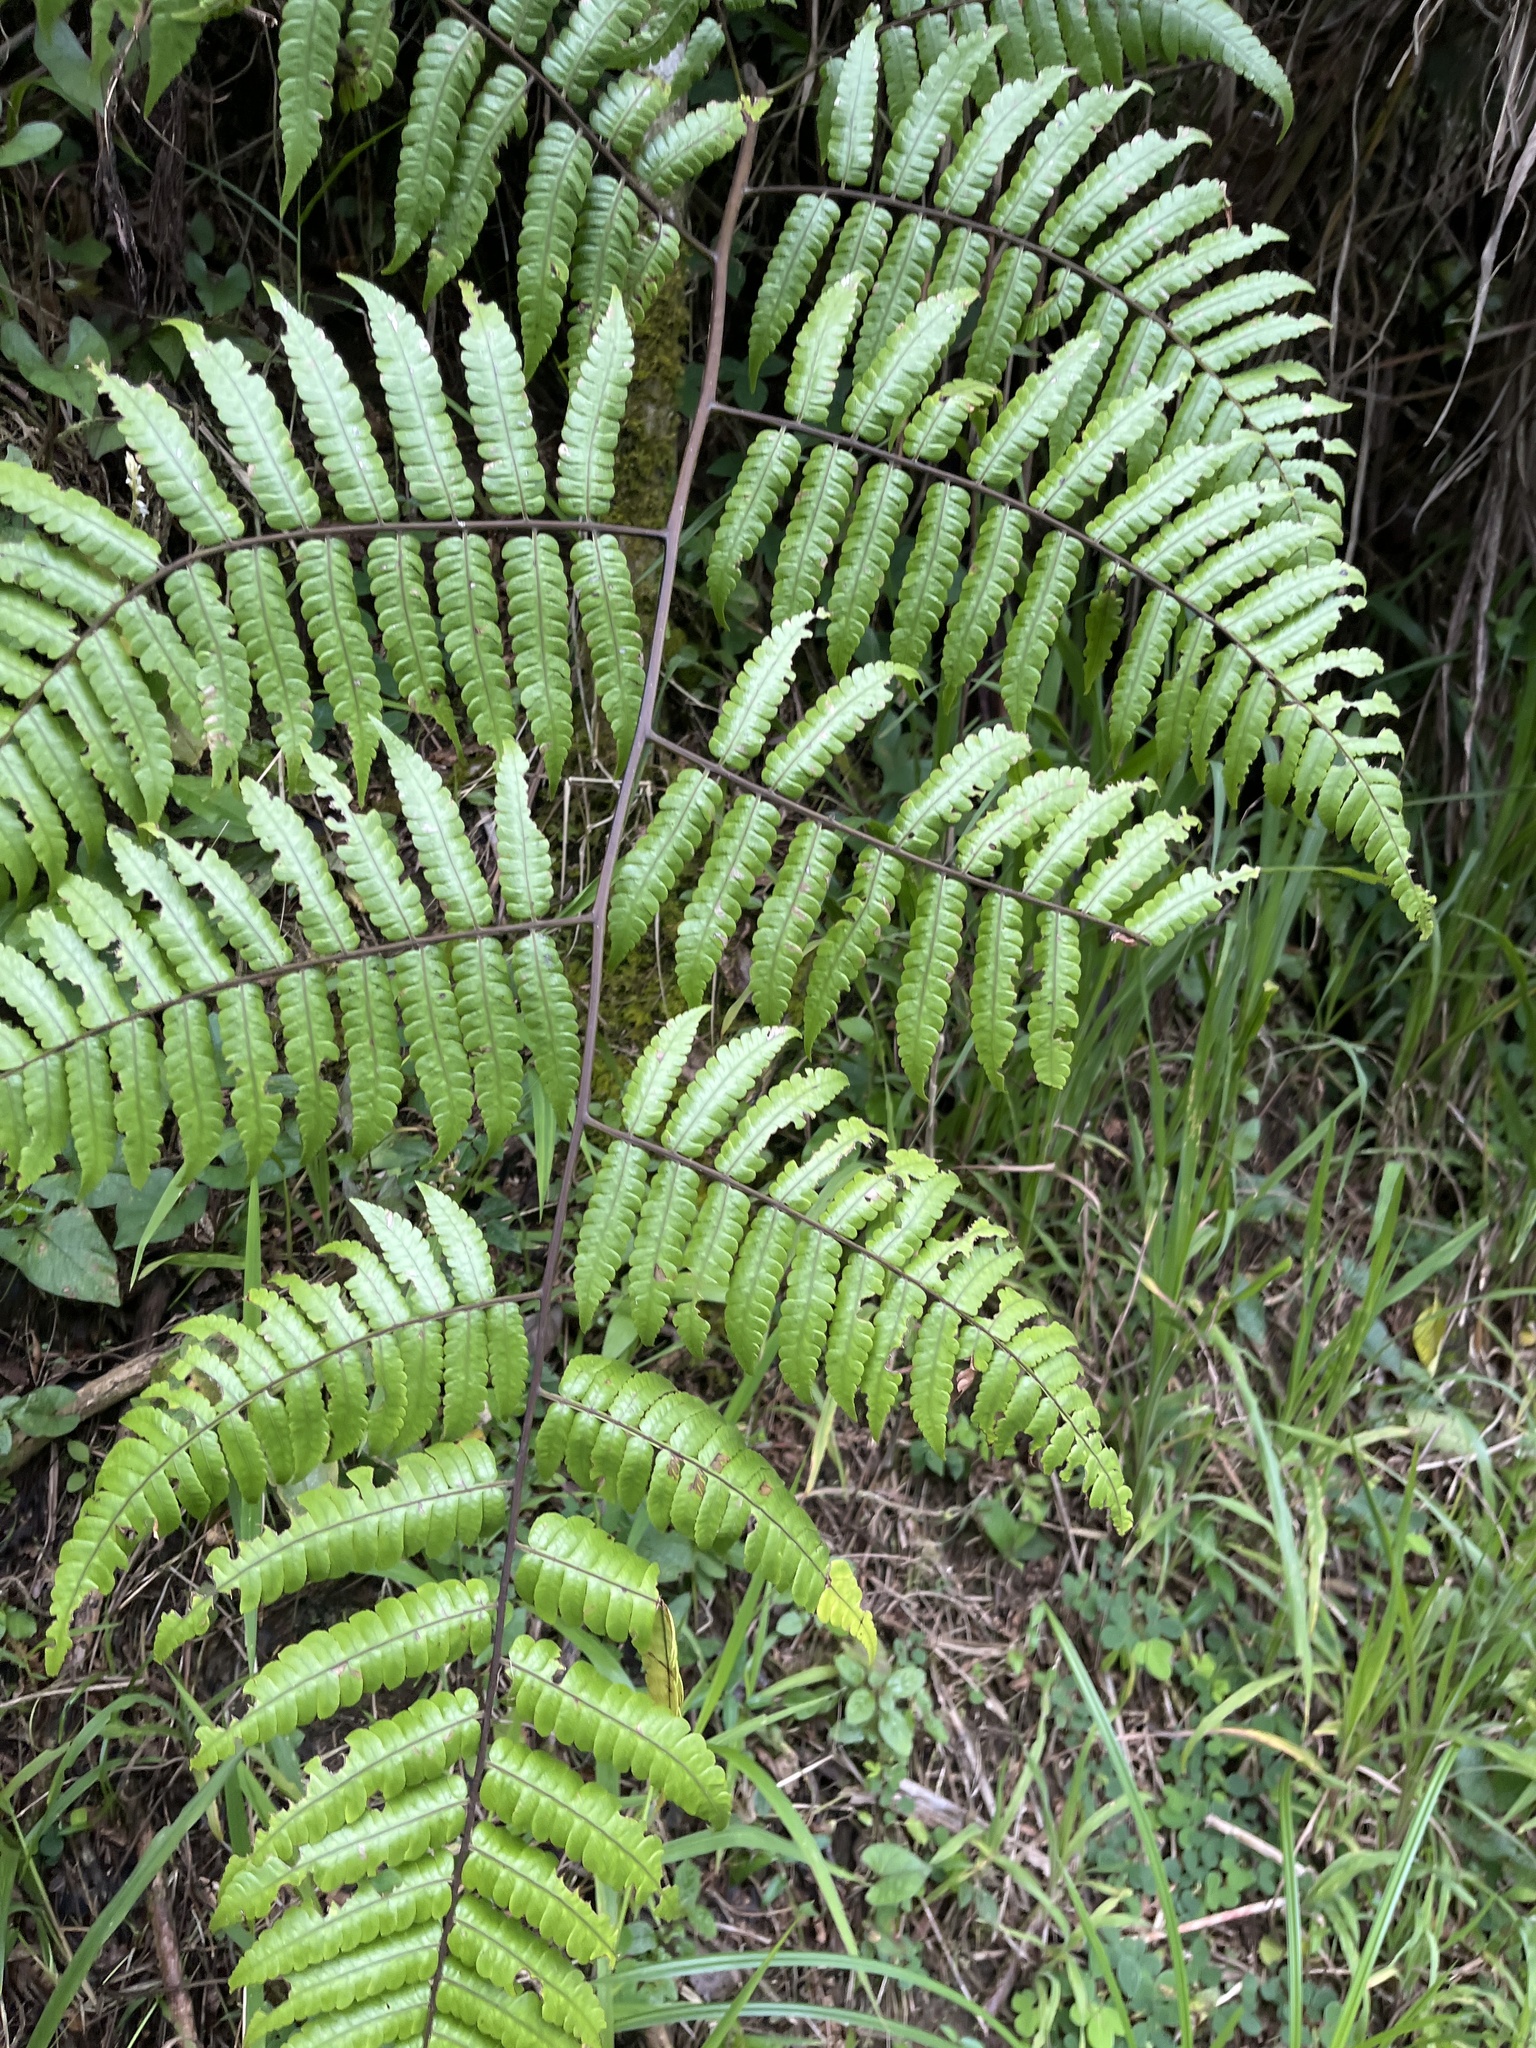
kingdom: Plantae
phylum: Tracheophyta
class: Polypodiopsida
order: Cyatheales
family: Cyatheaceae
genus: Cyathea
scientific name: Cyathea borinquena
